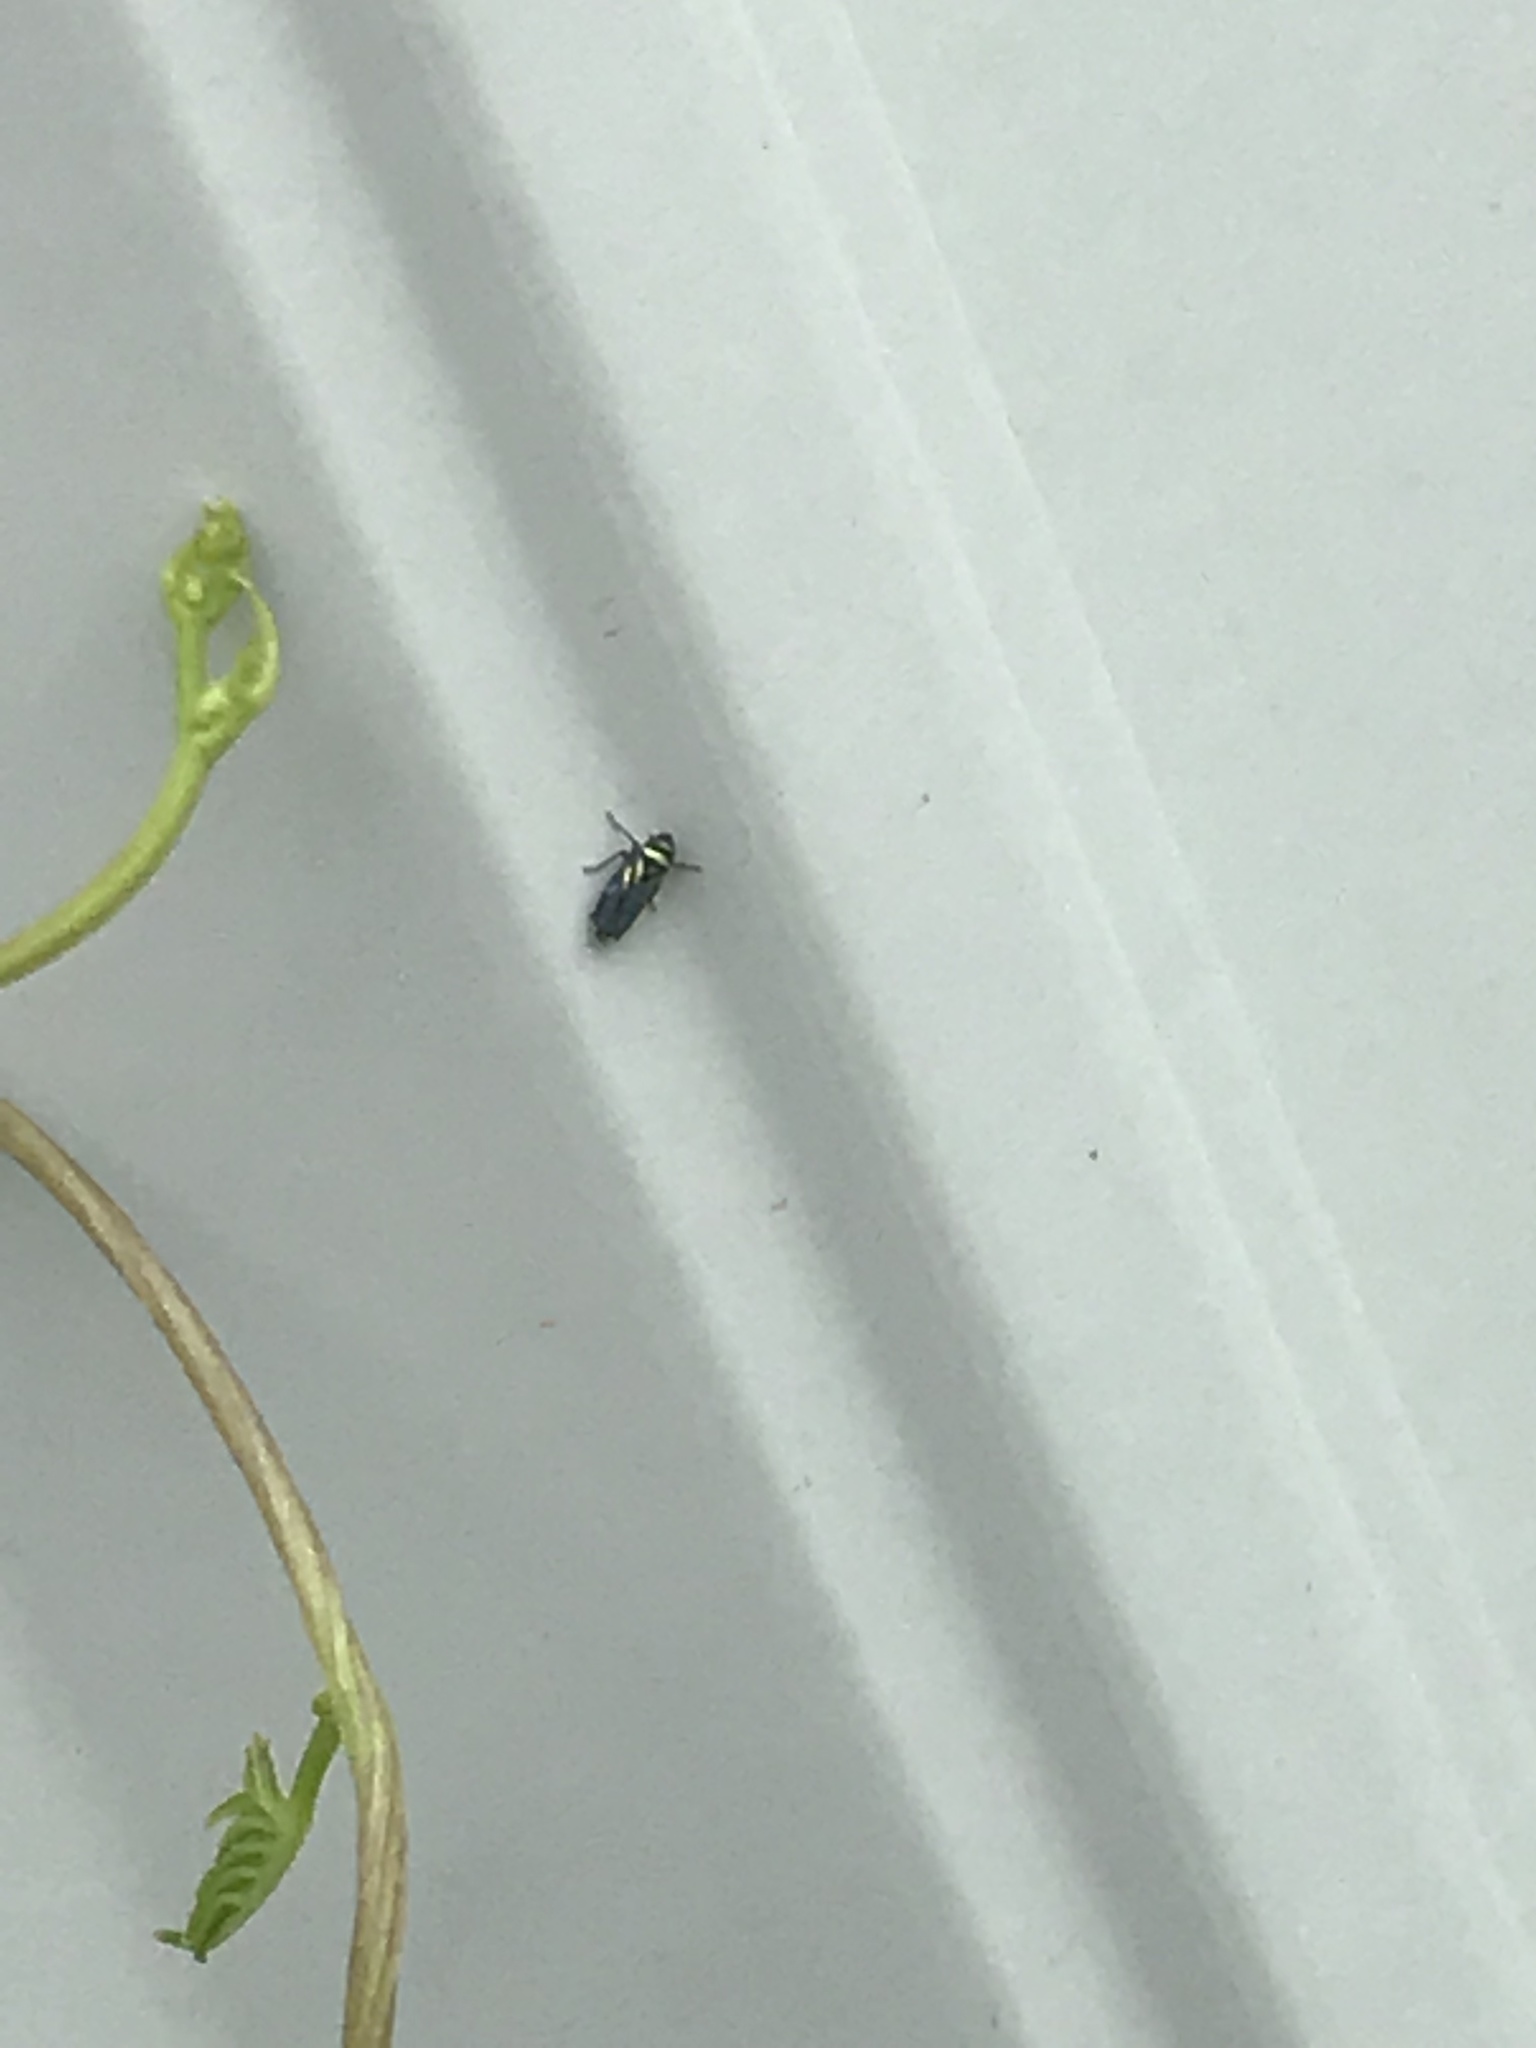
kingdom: Animalia
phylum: Arthropoda
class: Insecta
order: Hemiptera
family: Cicadellidae
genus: Stirellus
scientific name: Stirellus bicolor
